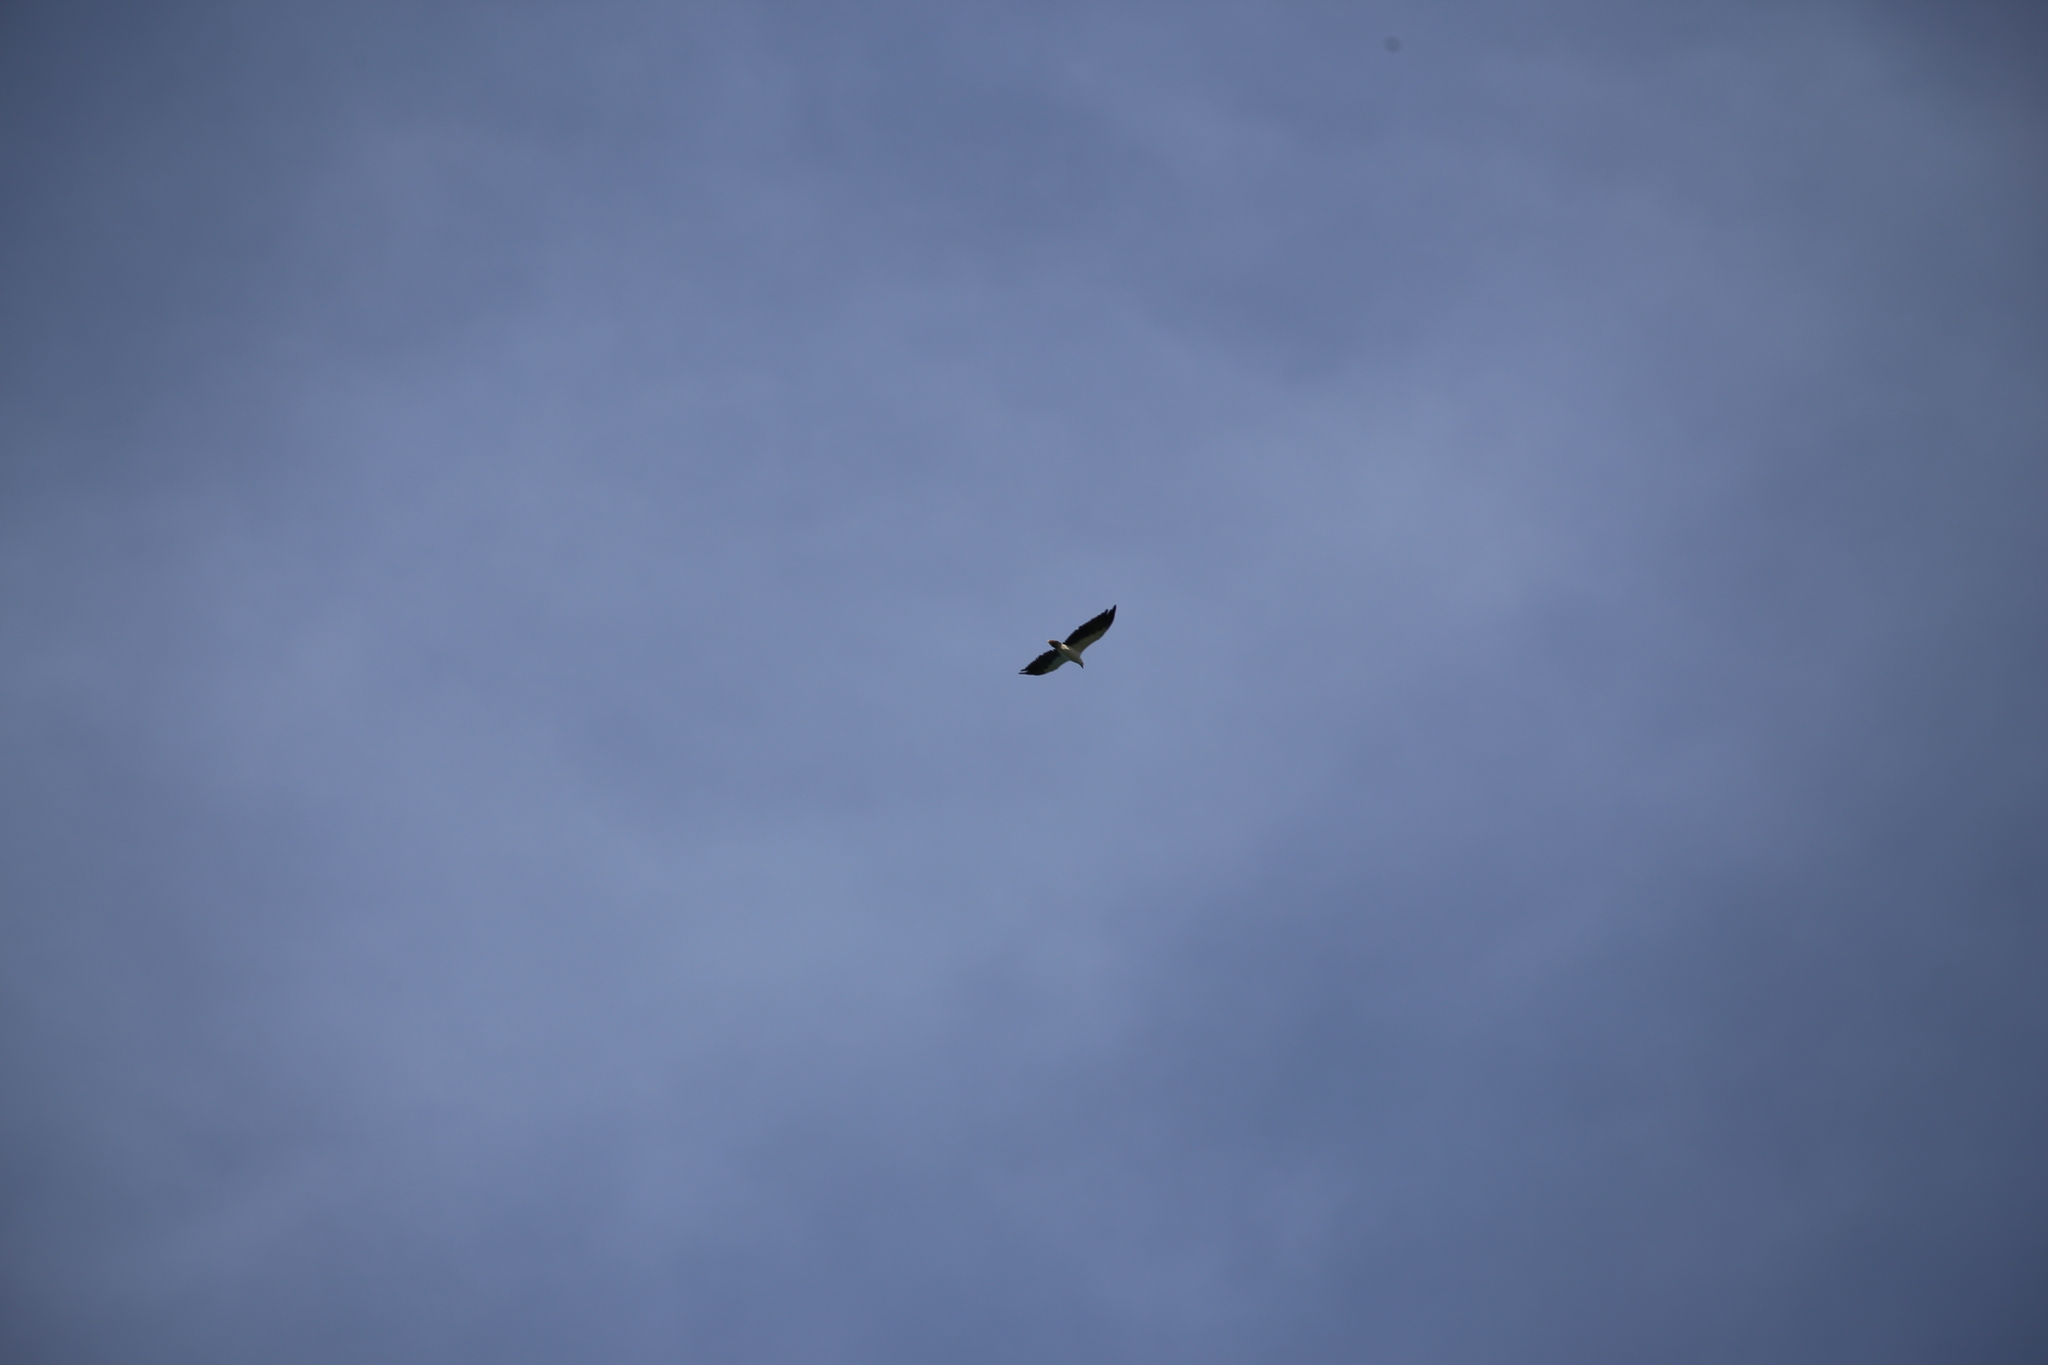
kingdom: Animalia
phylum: Chordata
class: Aves
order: Accipitriformes
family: Accipitridae
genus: Haliaeetus
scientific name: Haliaeetus leucogaster
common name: White-bellied sea eagle
